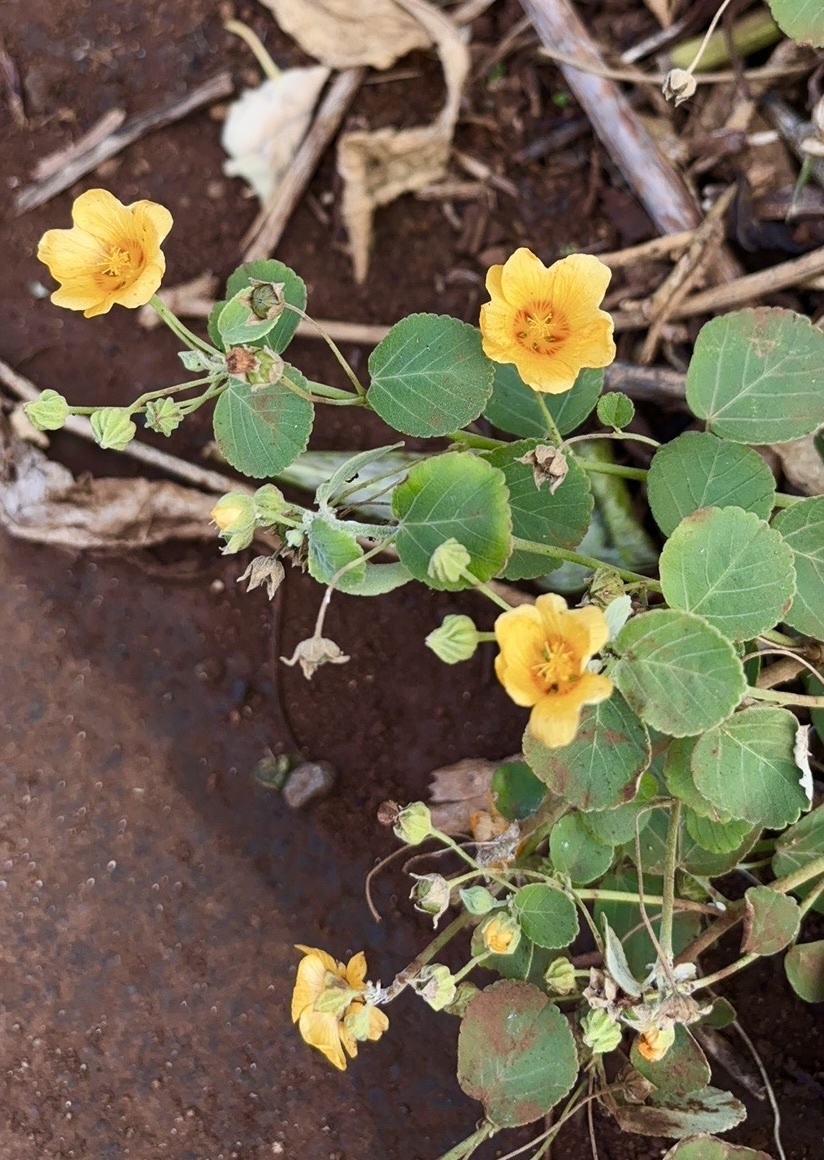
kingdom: Plantae
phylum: Tracheophyta
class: Magnoliopsida
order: Malvales
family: Malvaceae
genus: Sida
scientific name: Sida fallax
